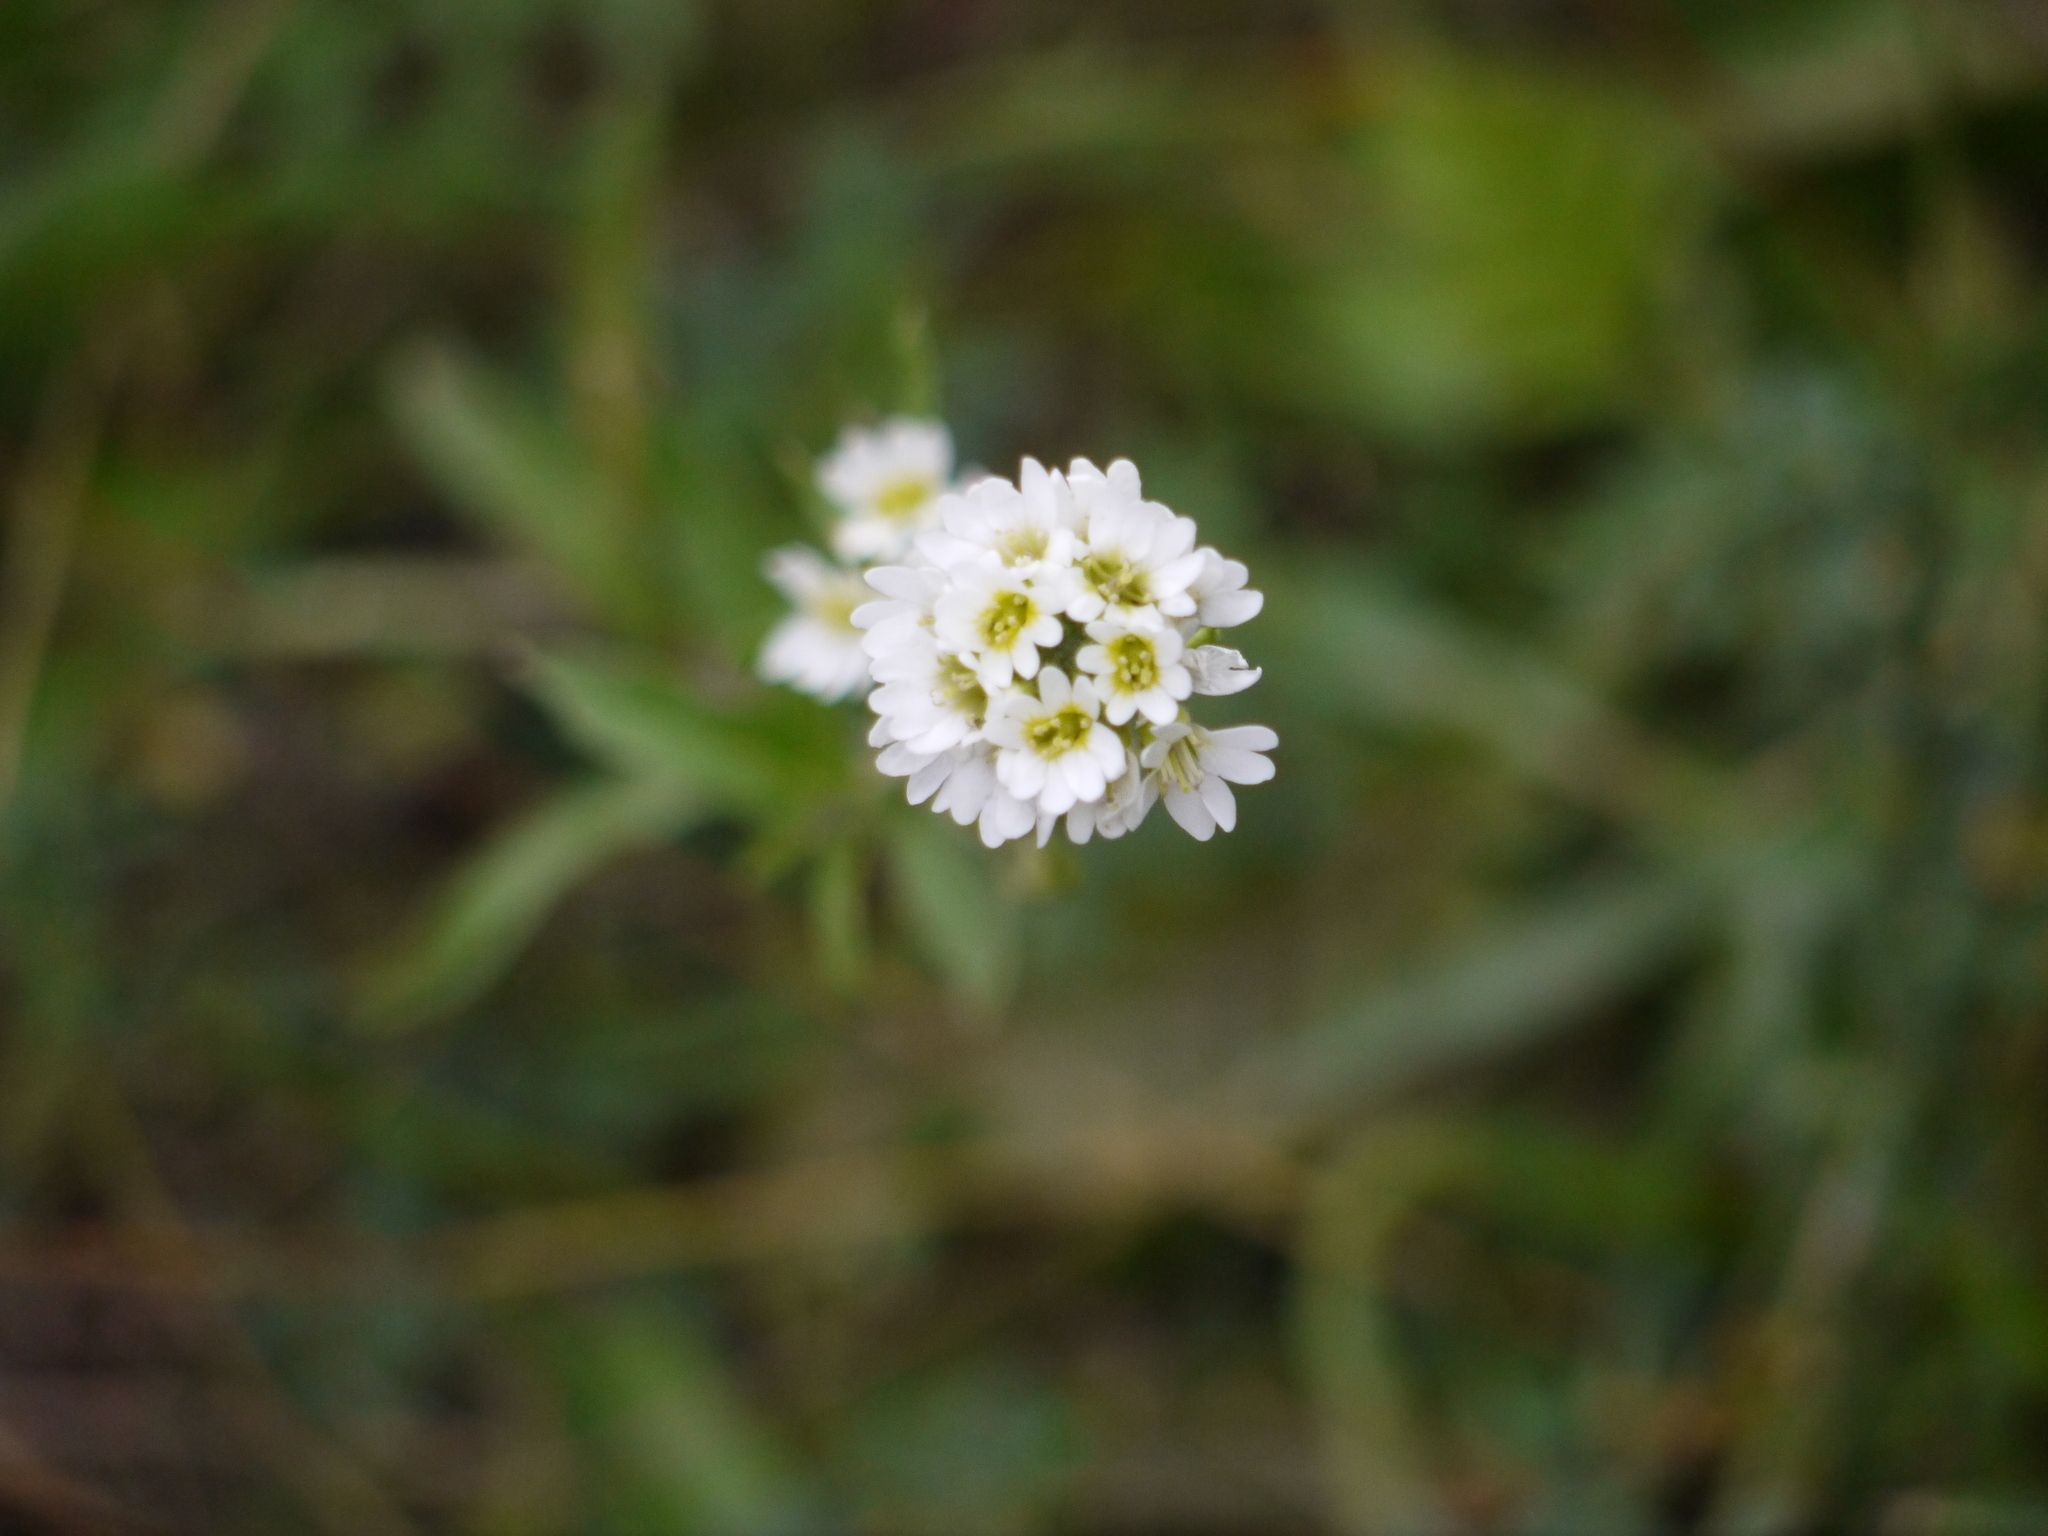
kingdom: Plantae
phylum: Tracheophyta
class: Magnoliopsida
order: Brassicales
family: Brassicaceae
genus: Berteroa
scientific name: Berteroa incana
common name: Hoary alison
